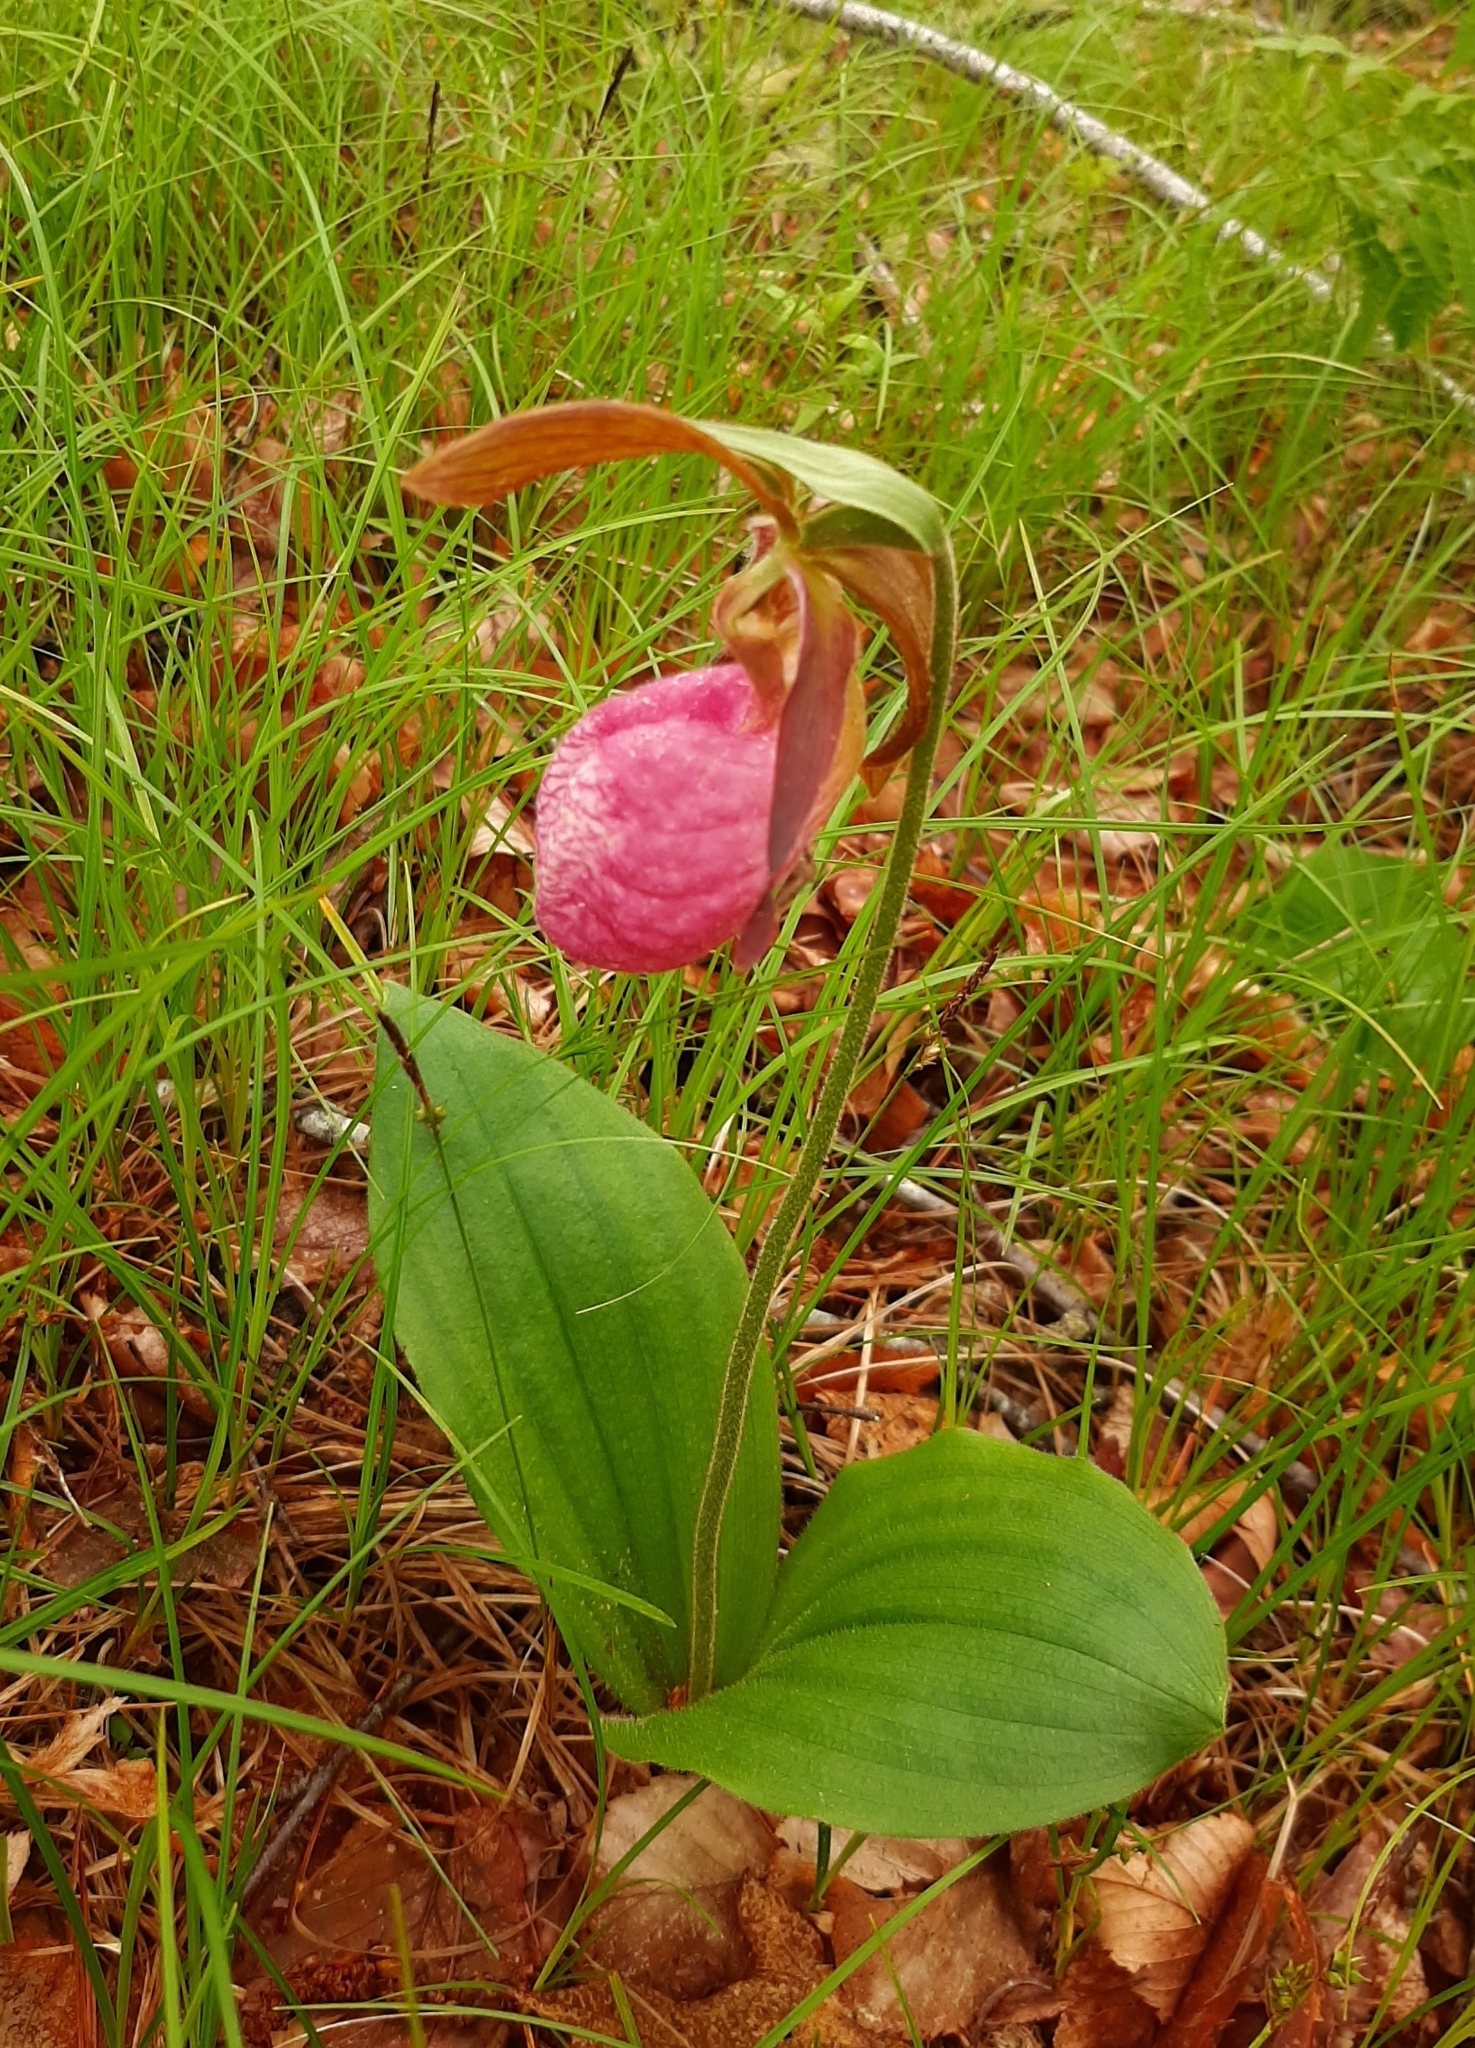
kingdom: Plantae
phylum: Tracheophyta
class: Liliopsida
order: Asparagales
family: Orchidaceae
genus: Cypripedium
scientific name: Cypripedium acaule
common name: Pink lady's-slipper
